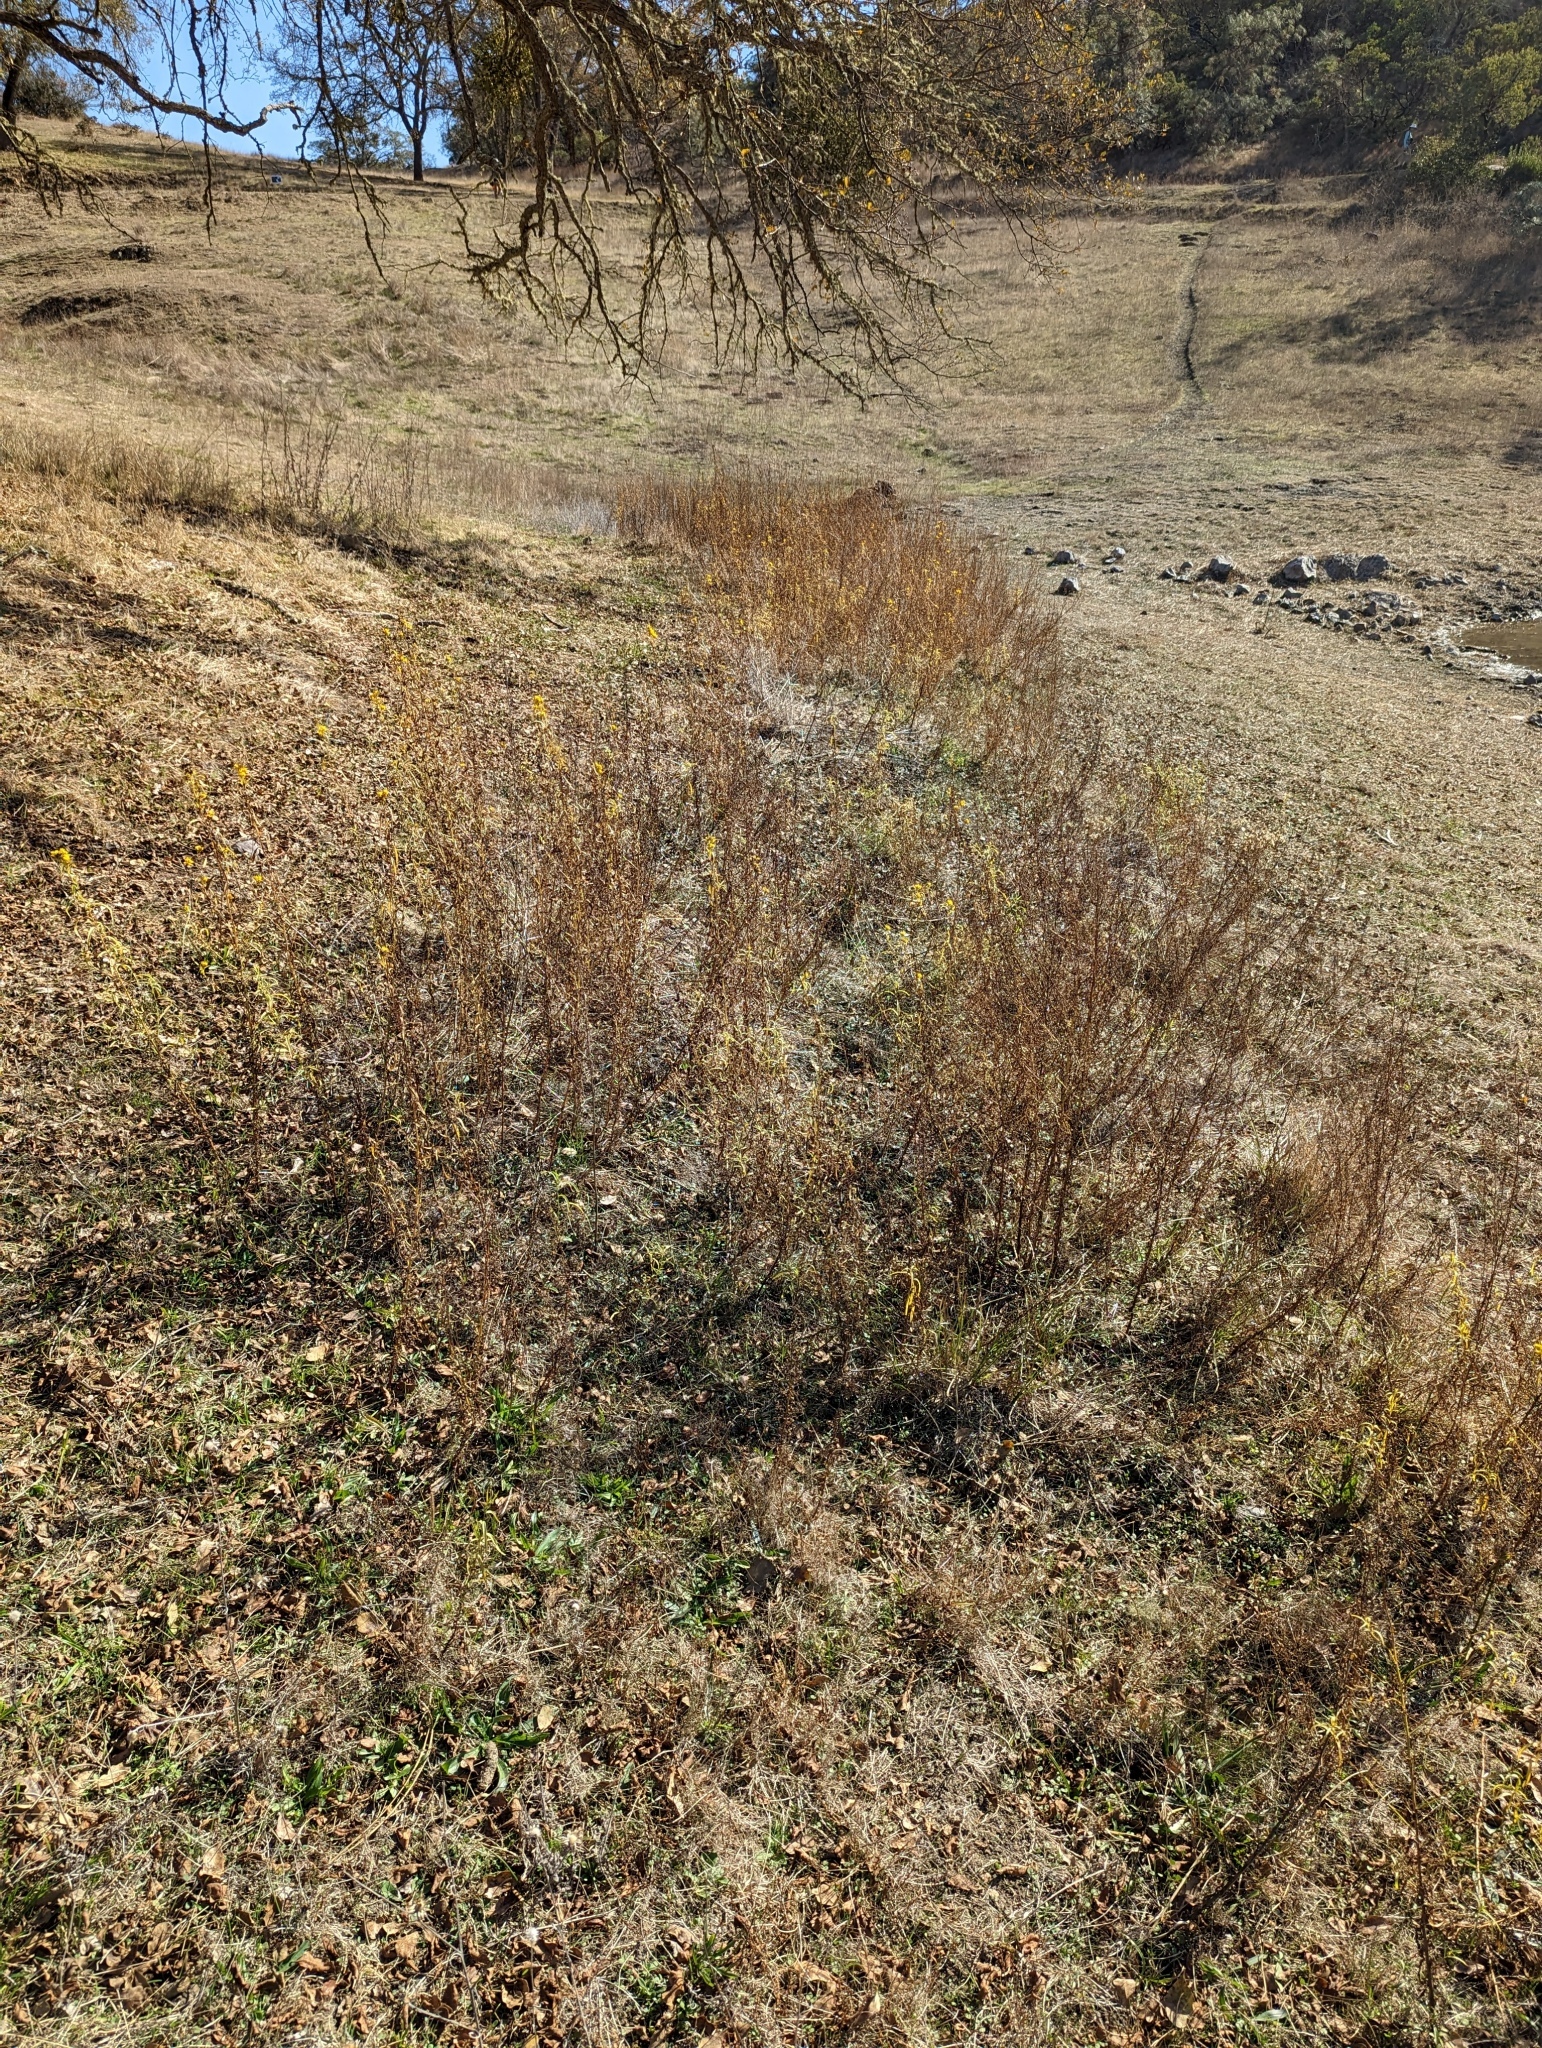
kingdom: Plantae
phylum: Tracheophyta
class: Magnoliopsida
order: Asterales
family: Asteraceae
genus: Euthamia
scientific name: Euthamia occidentalis
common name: Western goldentop
